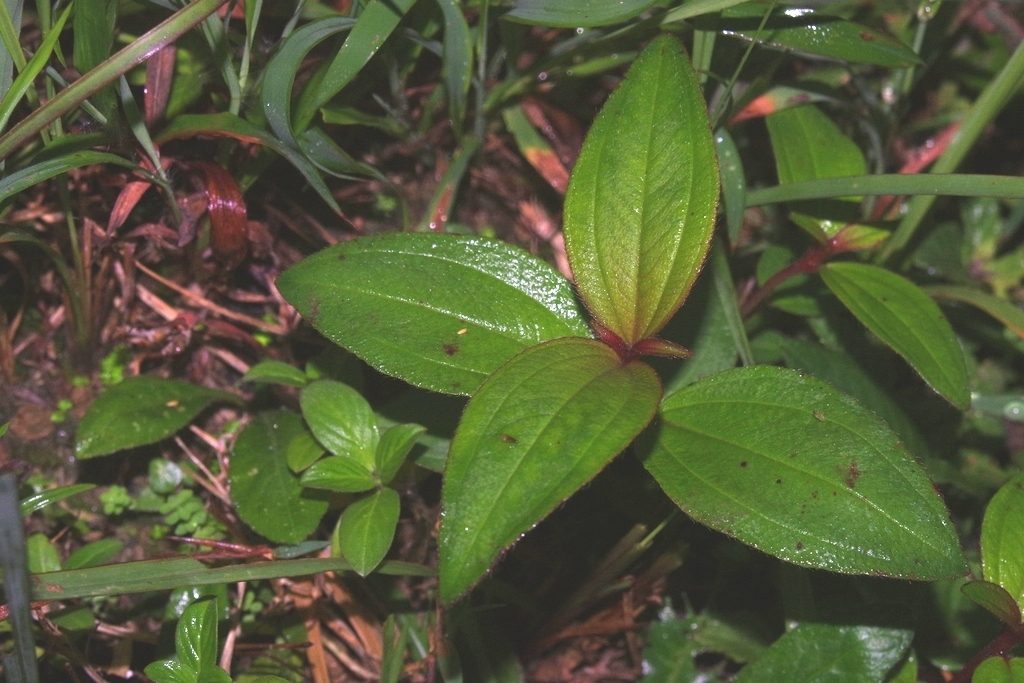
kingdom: Plantae
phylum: Tracheophyta
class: Magnoliopsida
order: Myrtales
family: Melastomataceae
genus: Melastoma
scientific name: Melastoma malabathricum
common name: Indian-rhododendron
